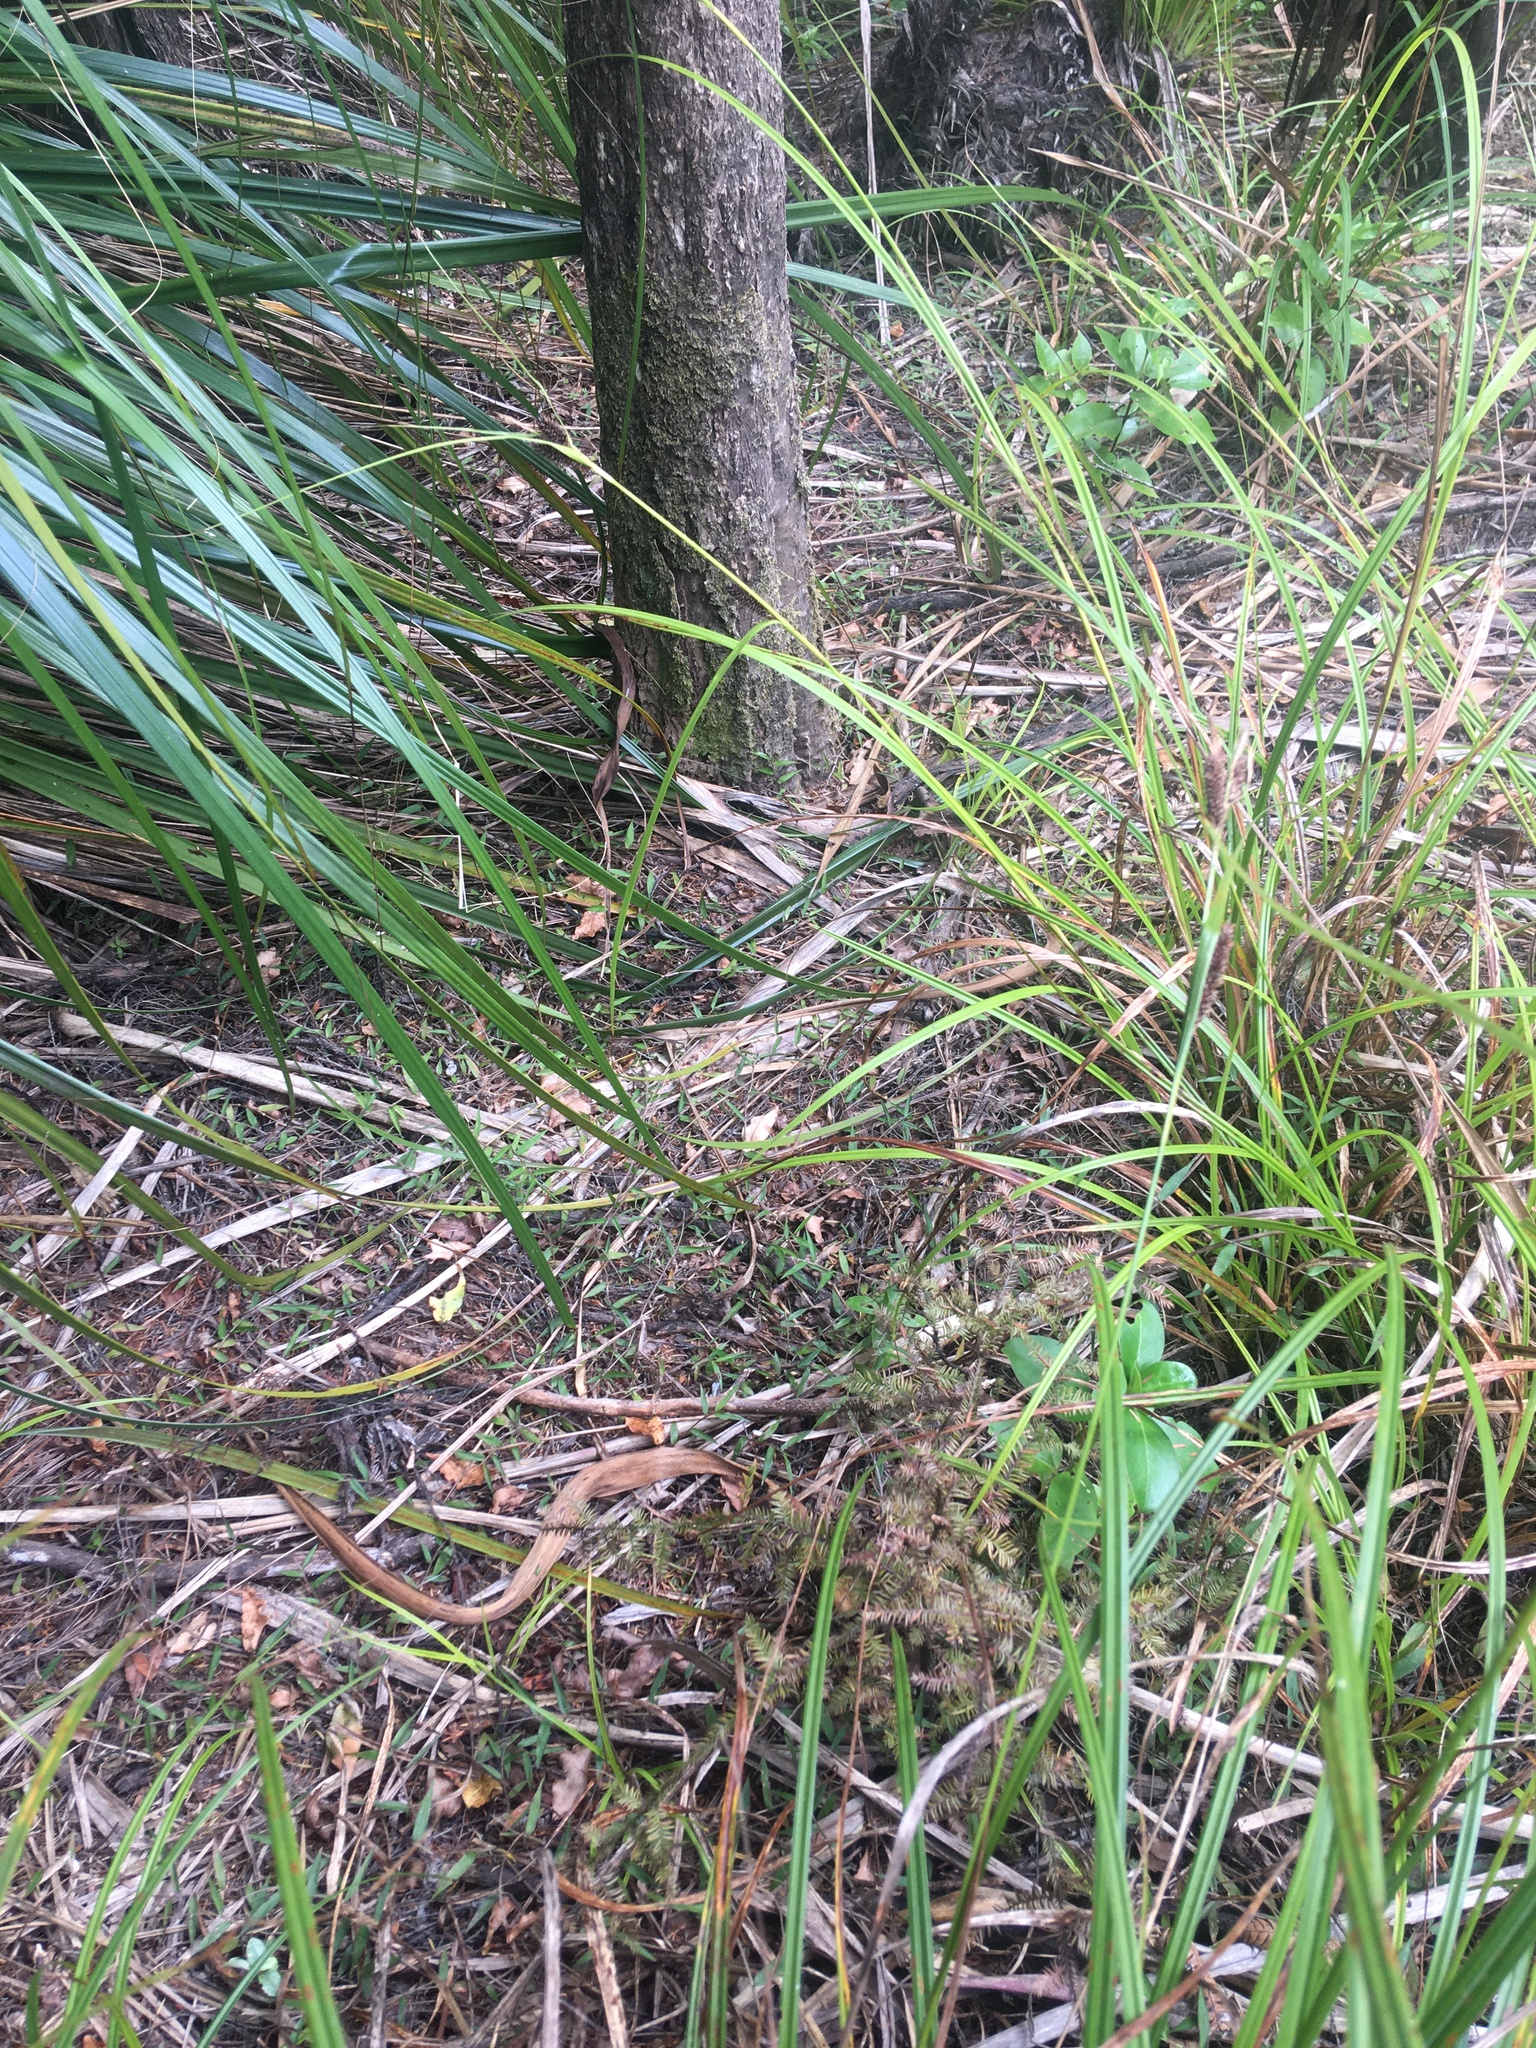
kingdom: Plantae
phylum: Tracheophyta
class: Pinopsida
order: Pinales
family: Podocarpaceae
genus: Dacrycarpus
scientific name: Dacrycarpus dacrydioides
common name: White pine
